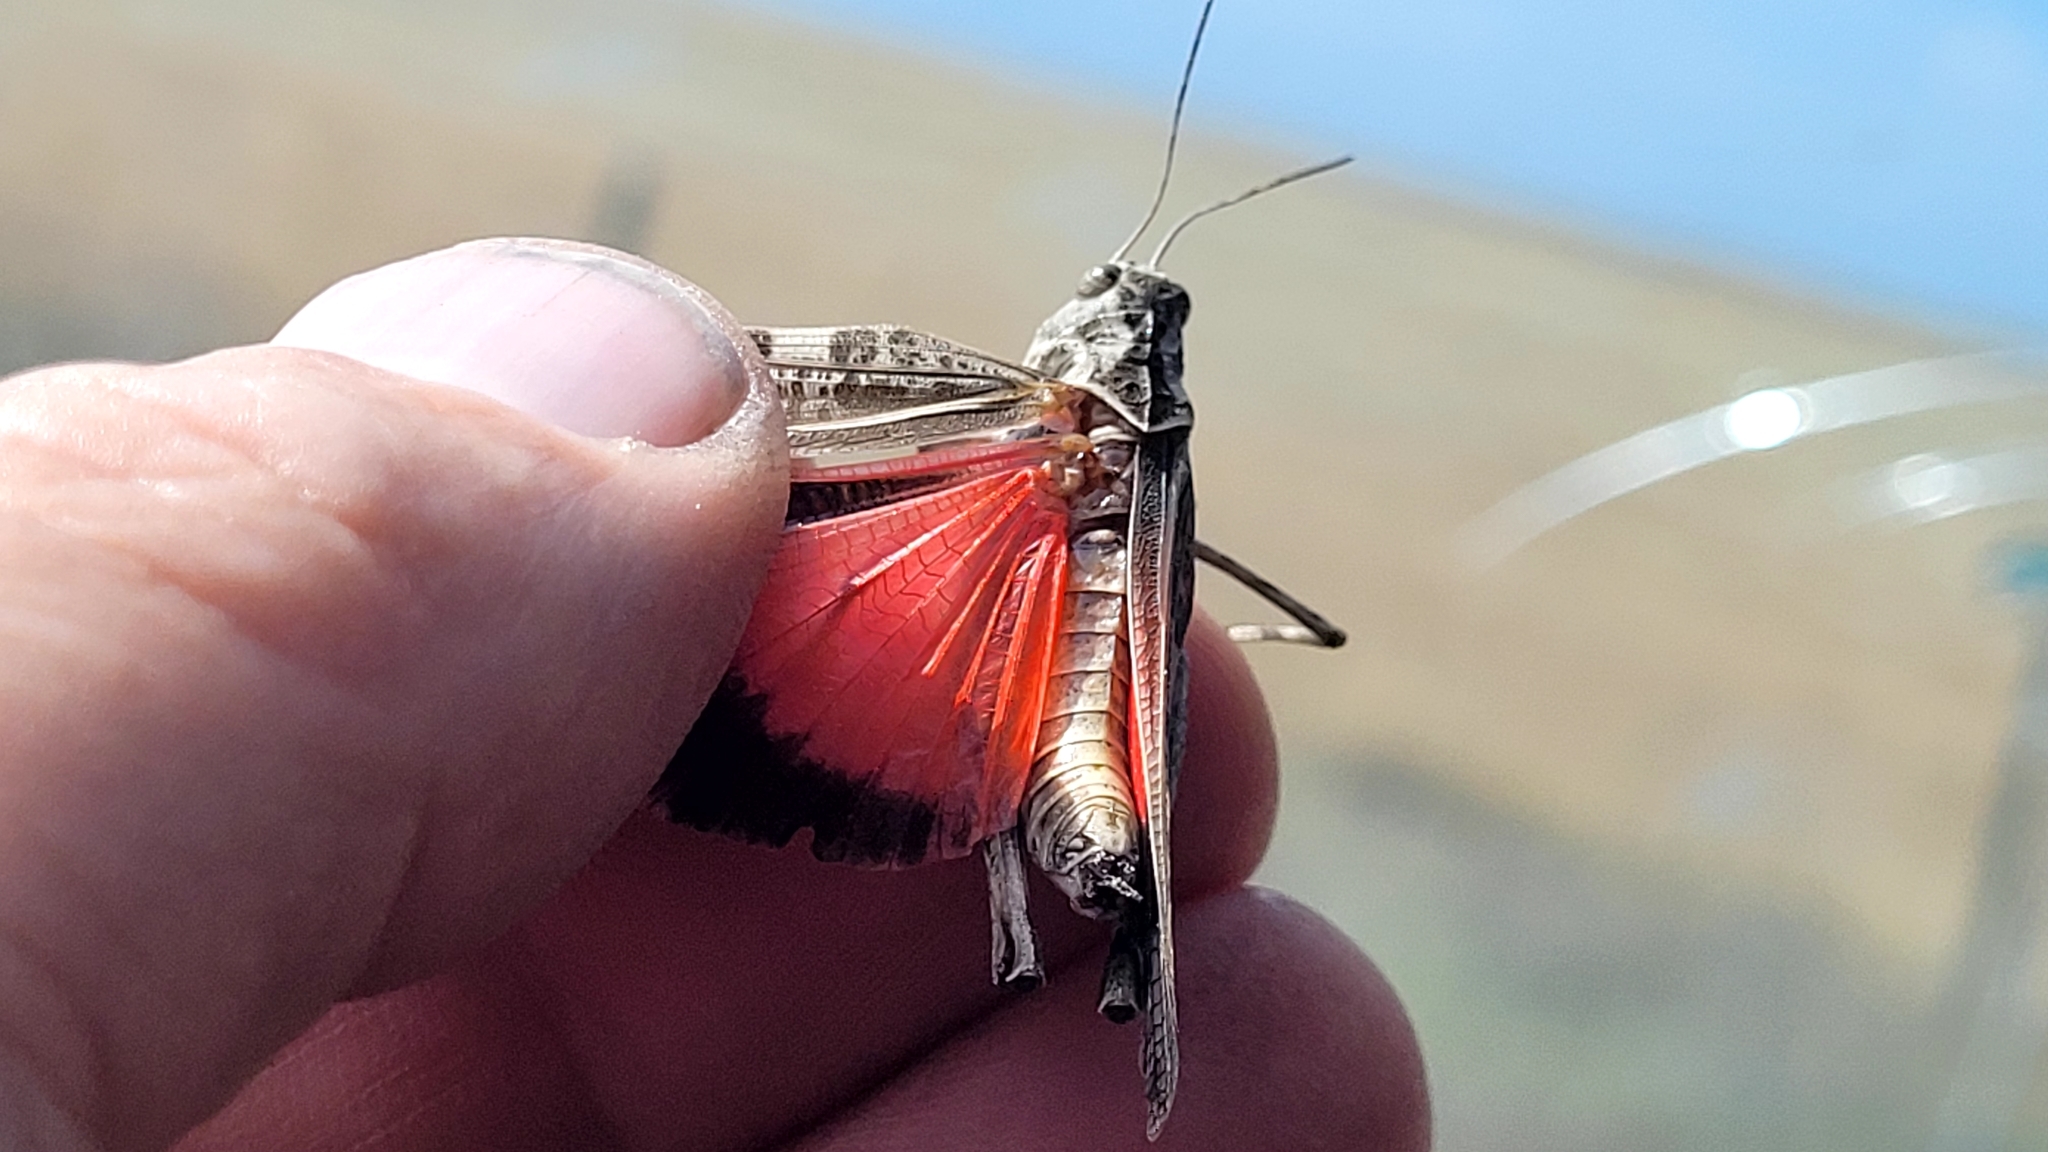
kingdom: Animalia
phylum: Arthropoda
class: Insecta
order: Orthoptera
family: Acrididae
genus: Metator
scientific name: Metator pardalinus
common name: Blue-legged grasshopper
